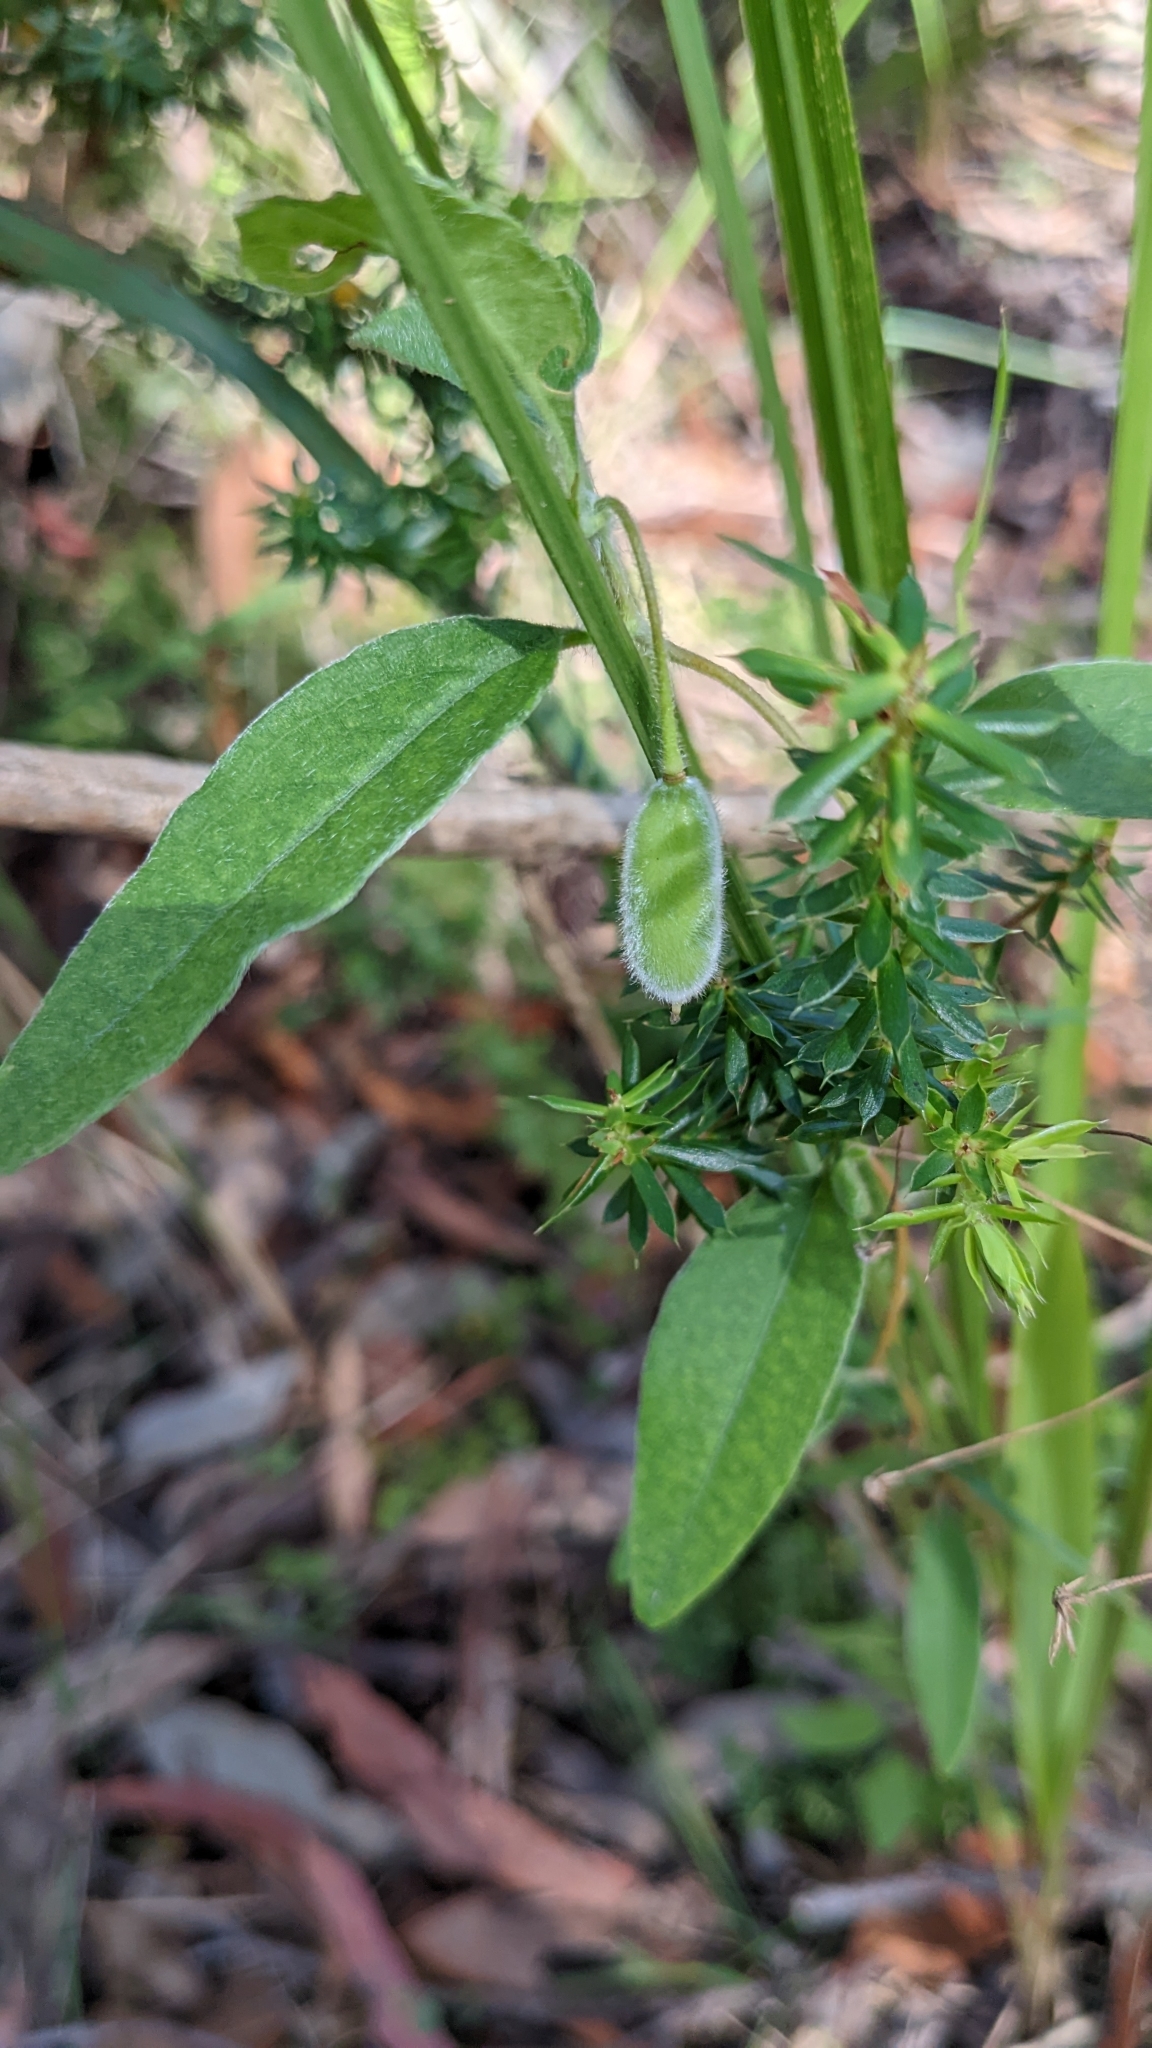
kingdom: Plantae
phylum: Tracheophyta
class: Magnoliopsida
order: Apiales
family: Pittosporaceae
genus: Billardiera
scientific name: Billardiera scandens
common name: Apple-berry
